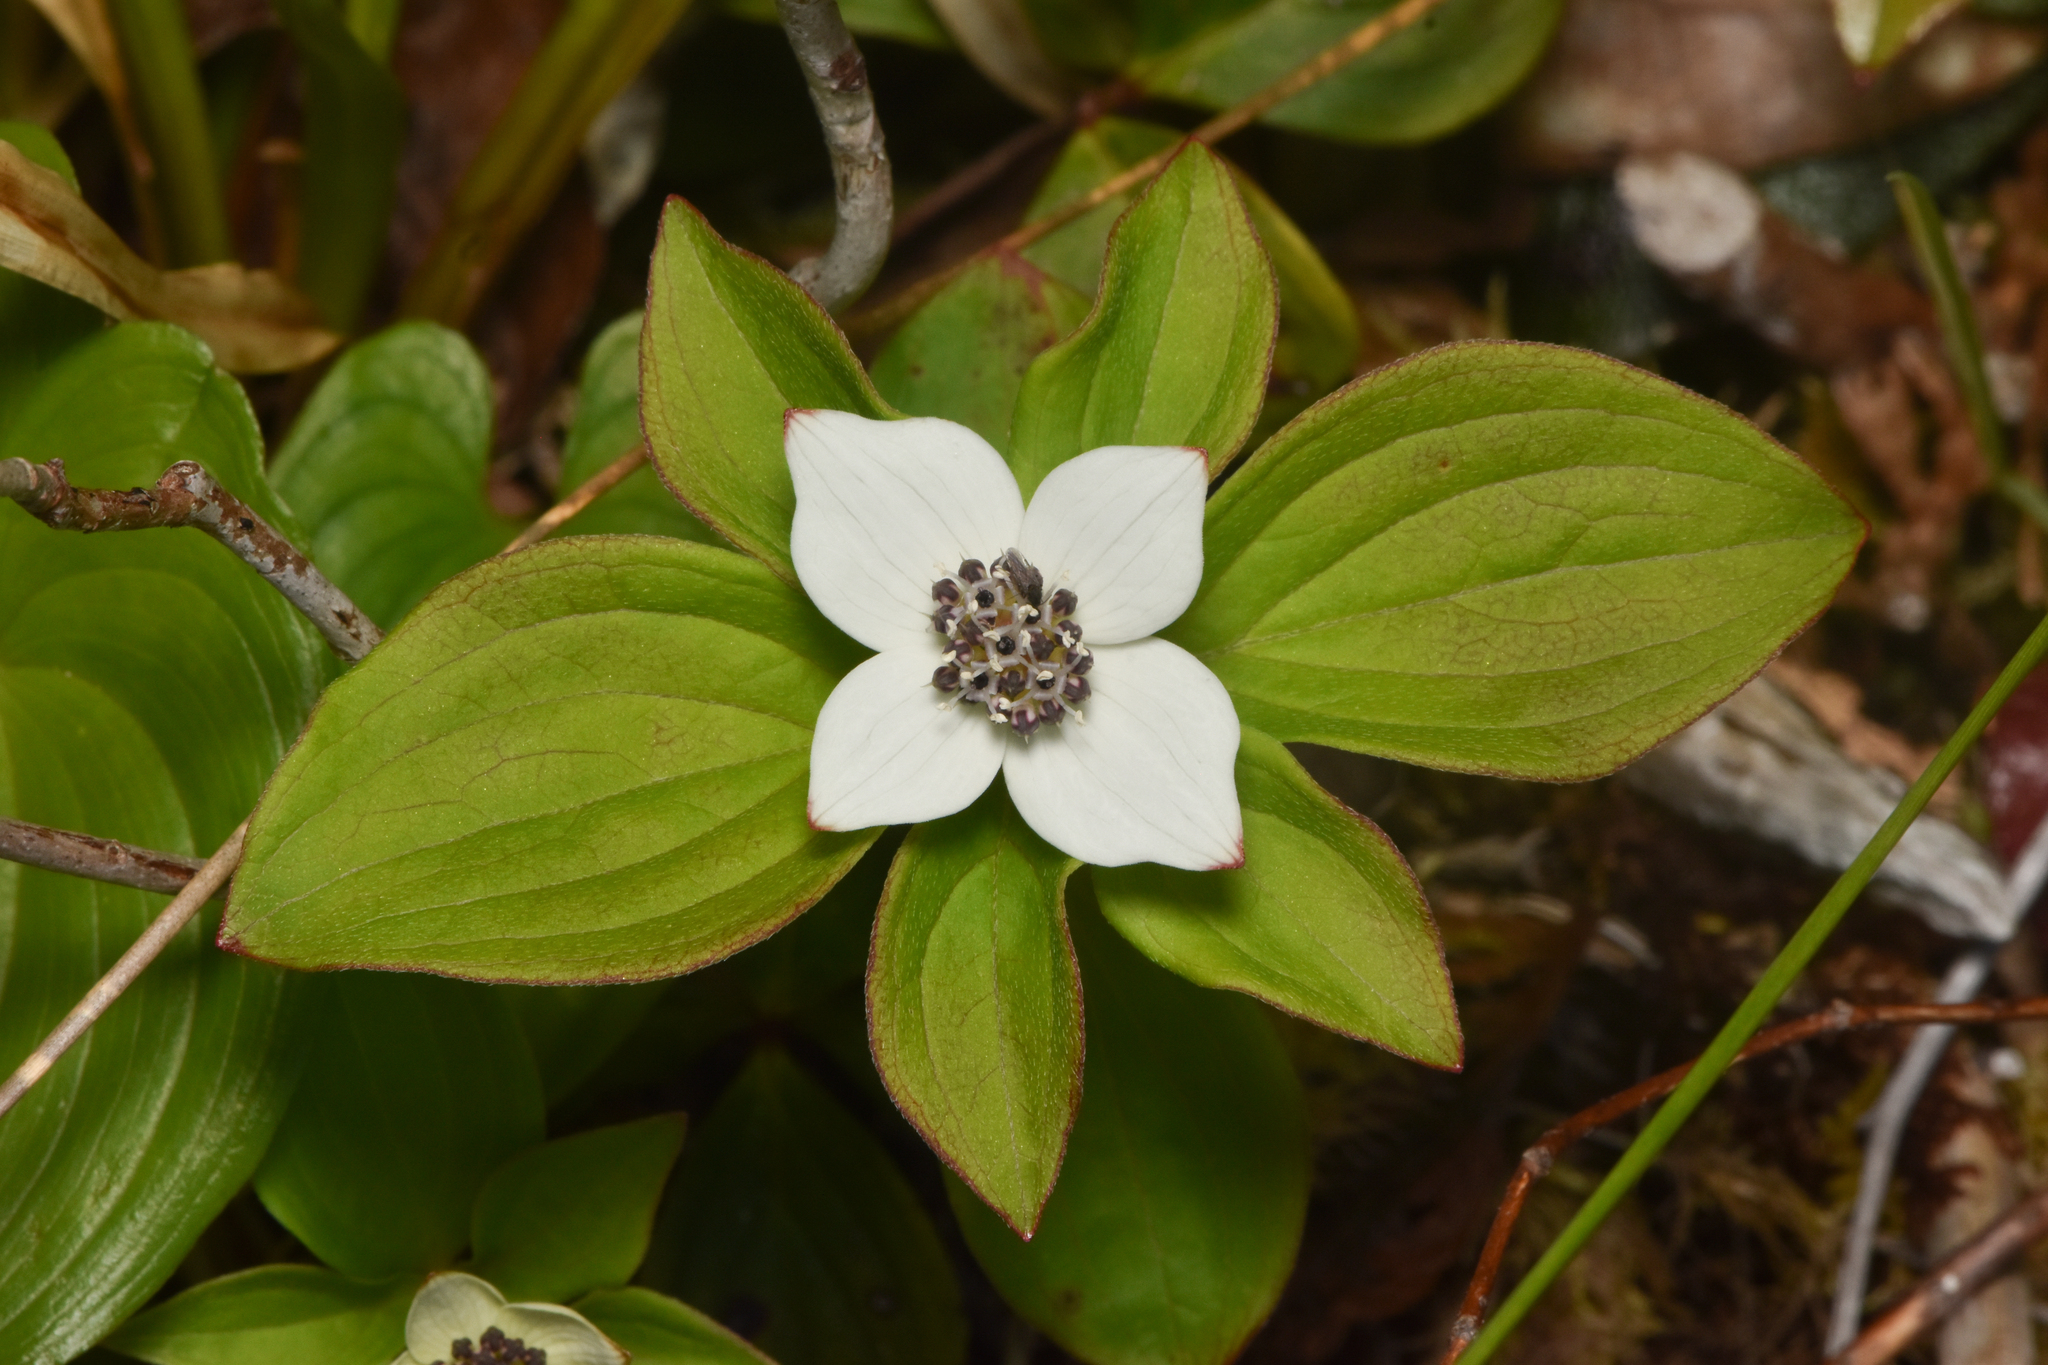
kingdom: Plantae
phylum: Tracheophyta
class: Magnoliopsida
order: Cornales
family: Cornaceae
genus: Cornus
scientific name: Cornus unalaschkensis
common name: Alaska bunchberry
